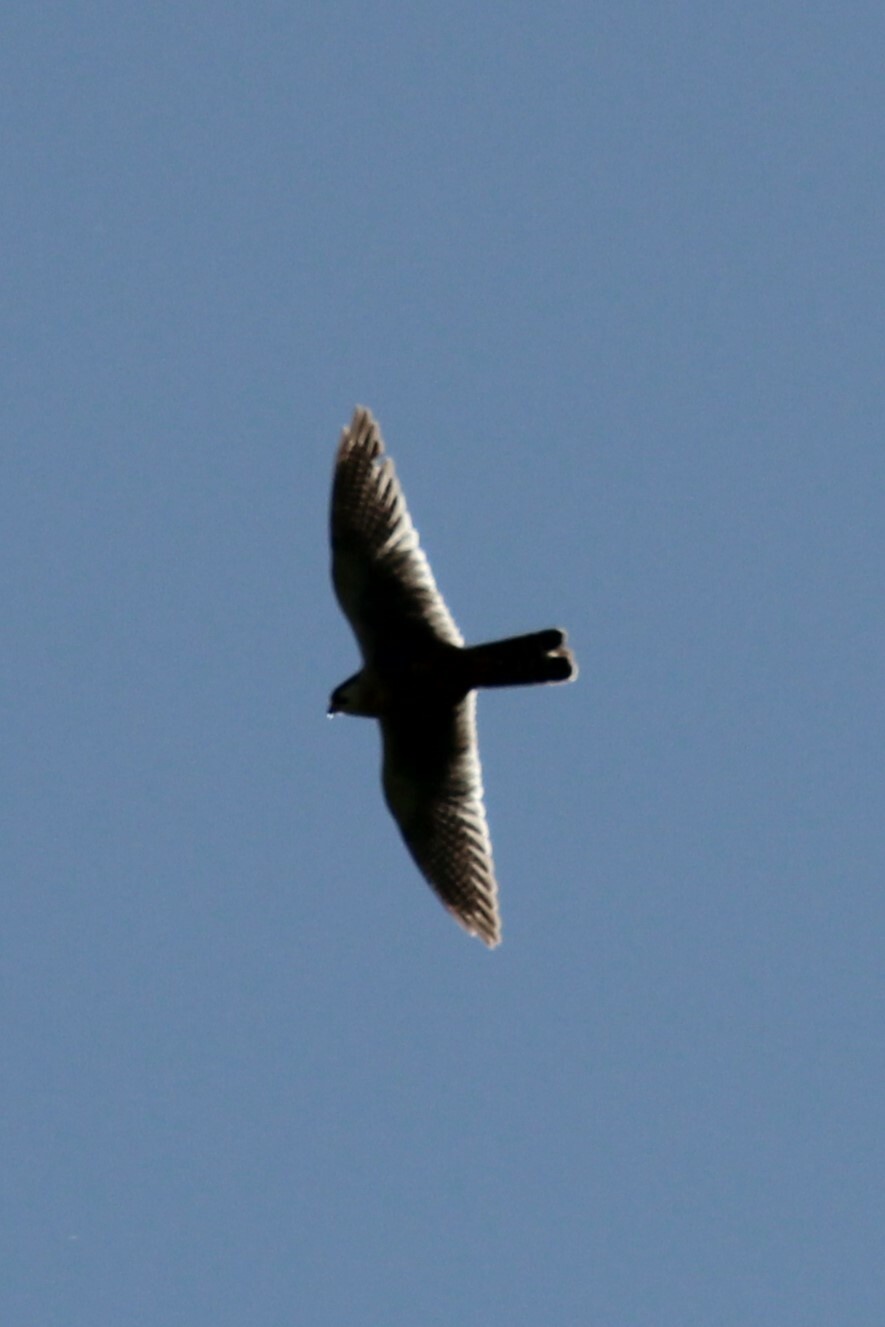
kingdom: Animalia
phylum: Chordata
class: Aves
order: Falconiformes
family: Falconidae
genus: Falco
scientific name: Falco femoralis
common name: Aplomado falcon
